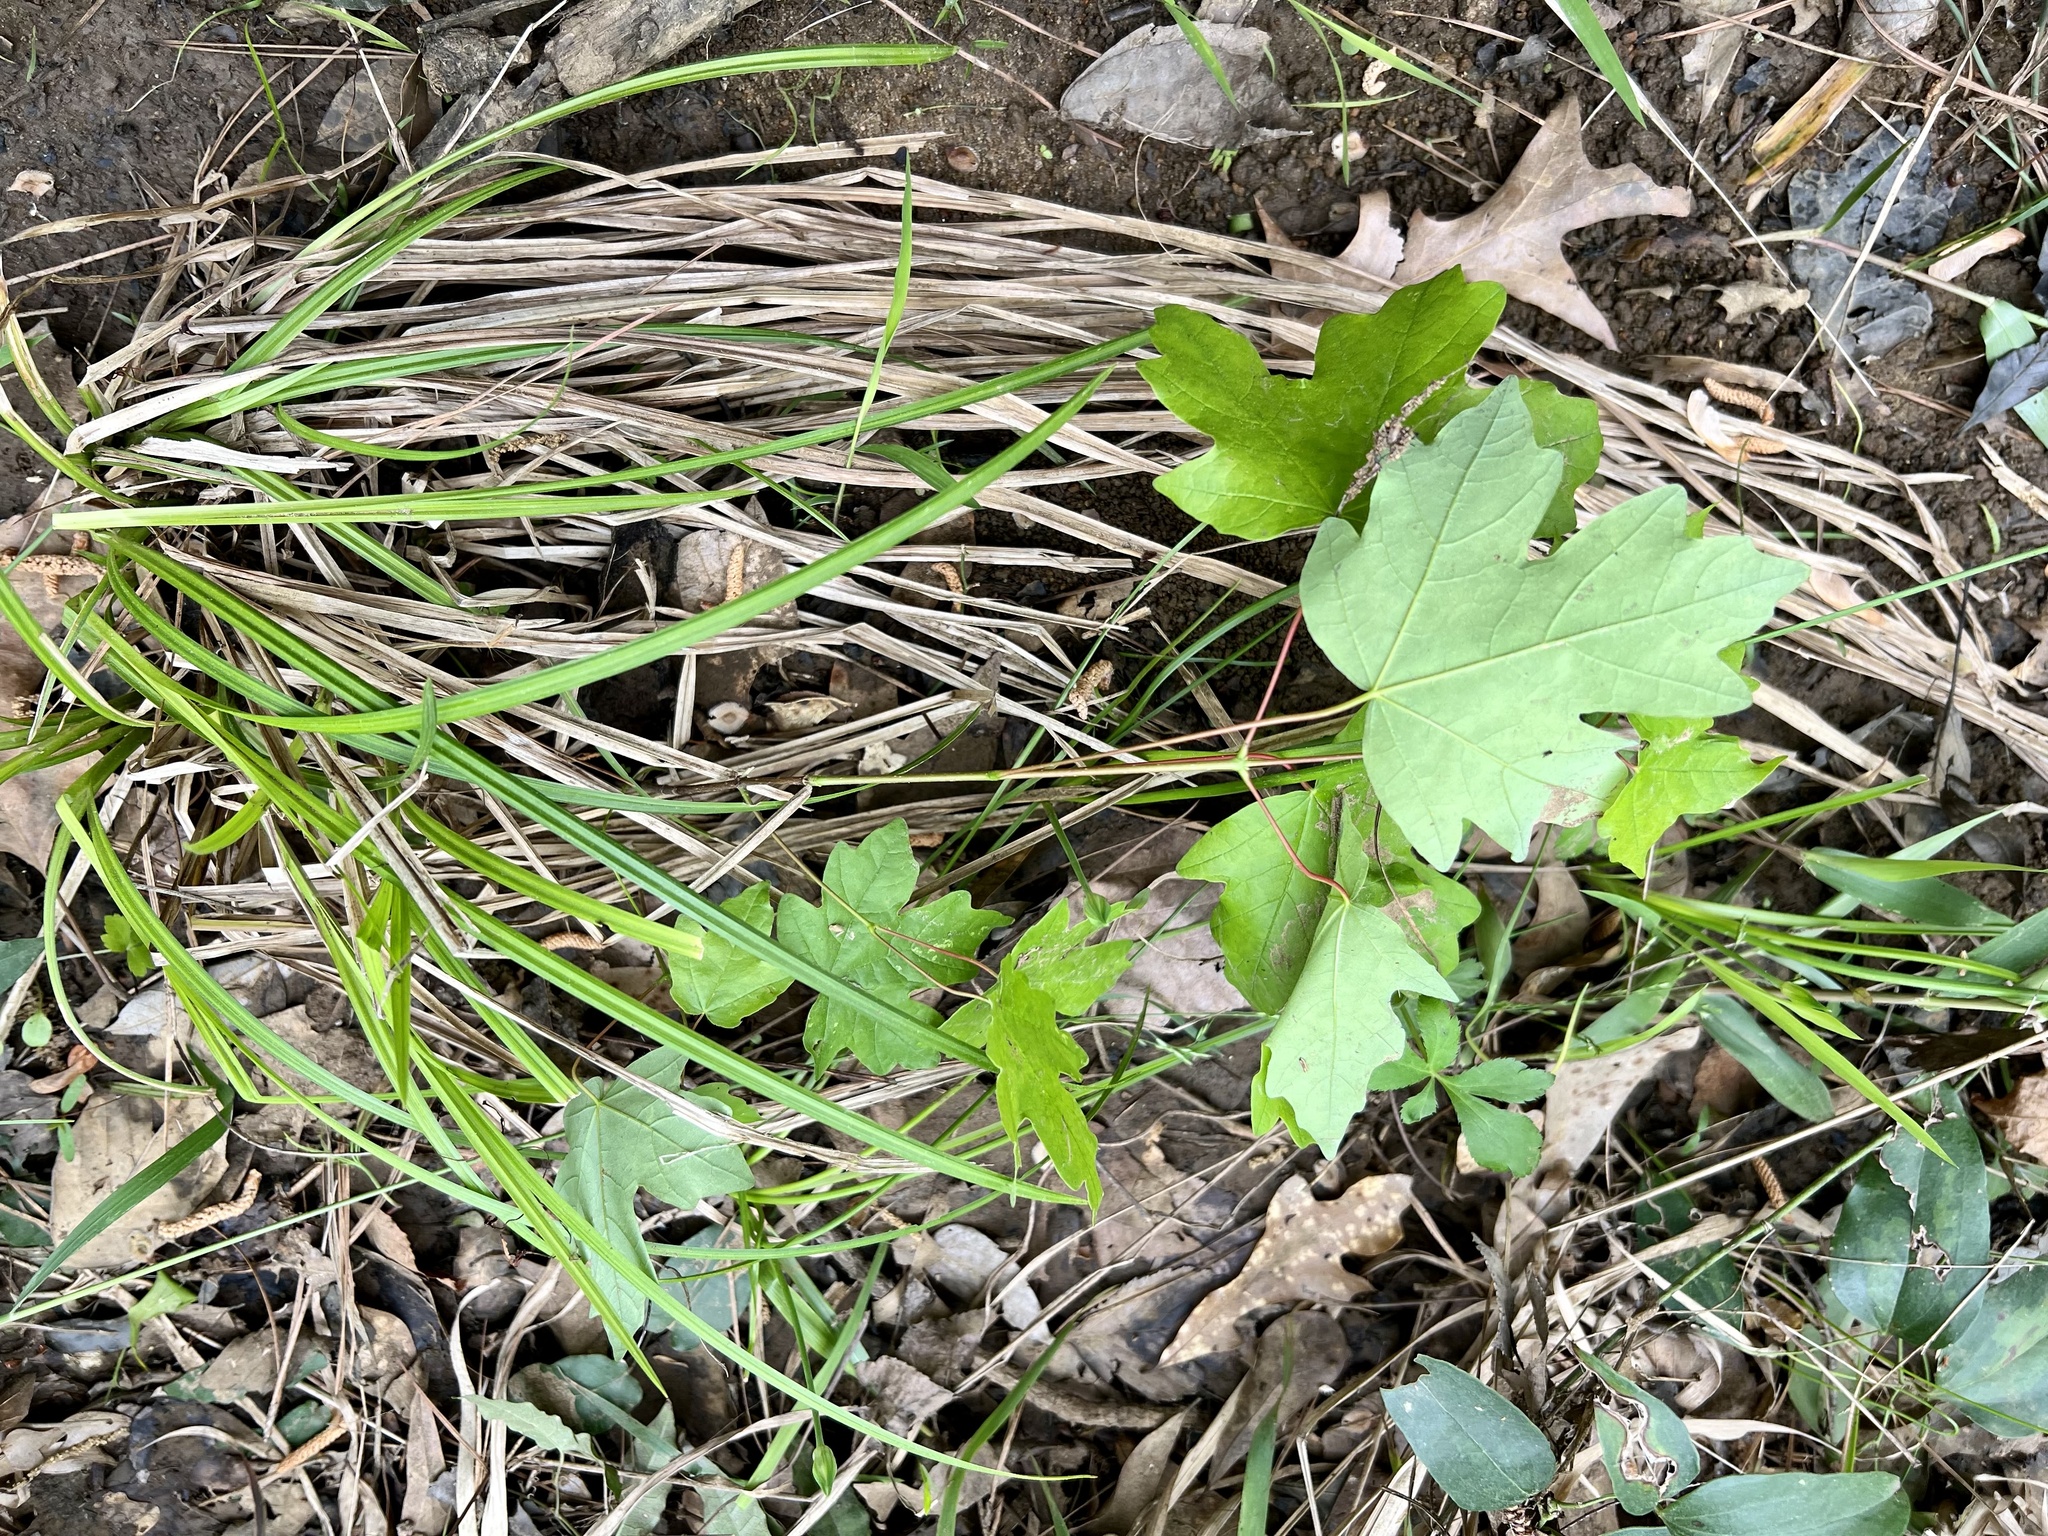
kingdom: Plantae
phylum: Tracheophyta
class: Magnoliopsida
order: Sapindales
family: Sapindaceae
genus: Acer
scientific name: Acer floridanum
